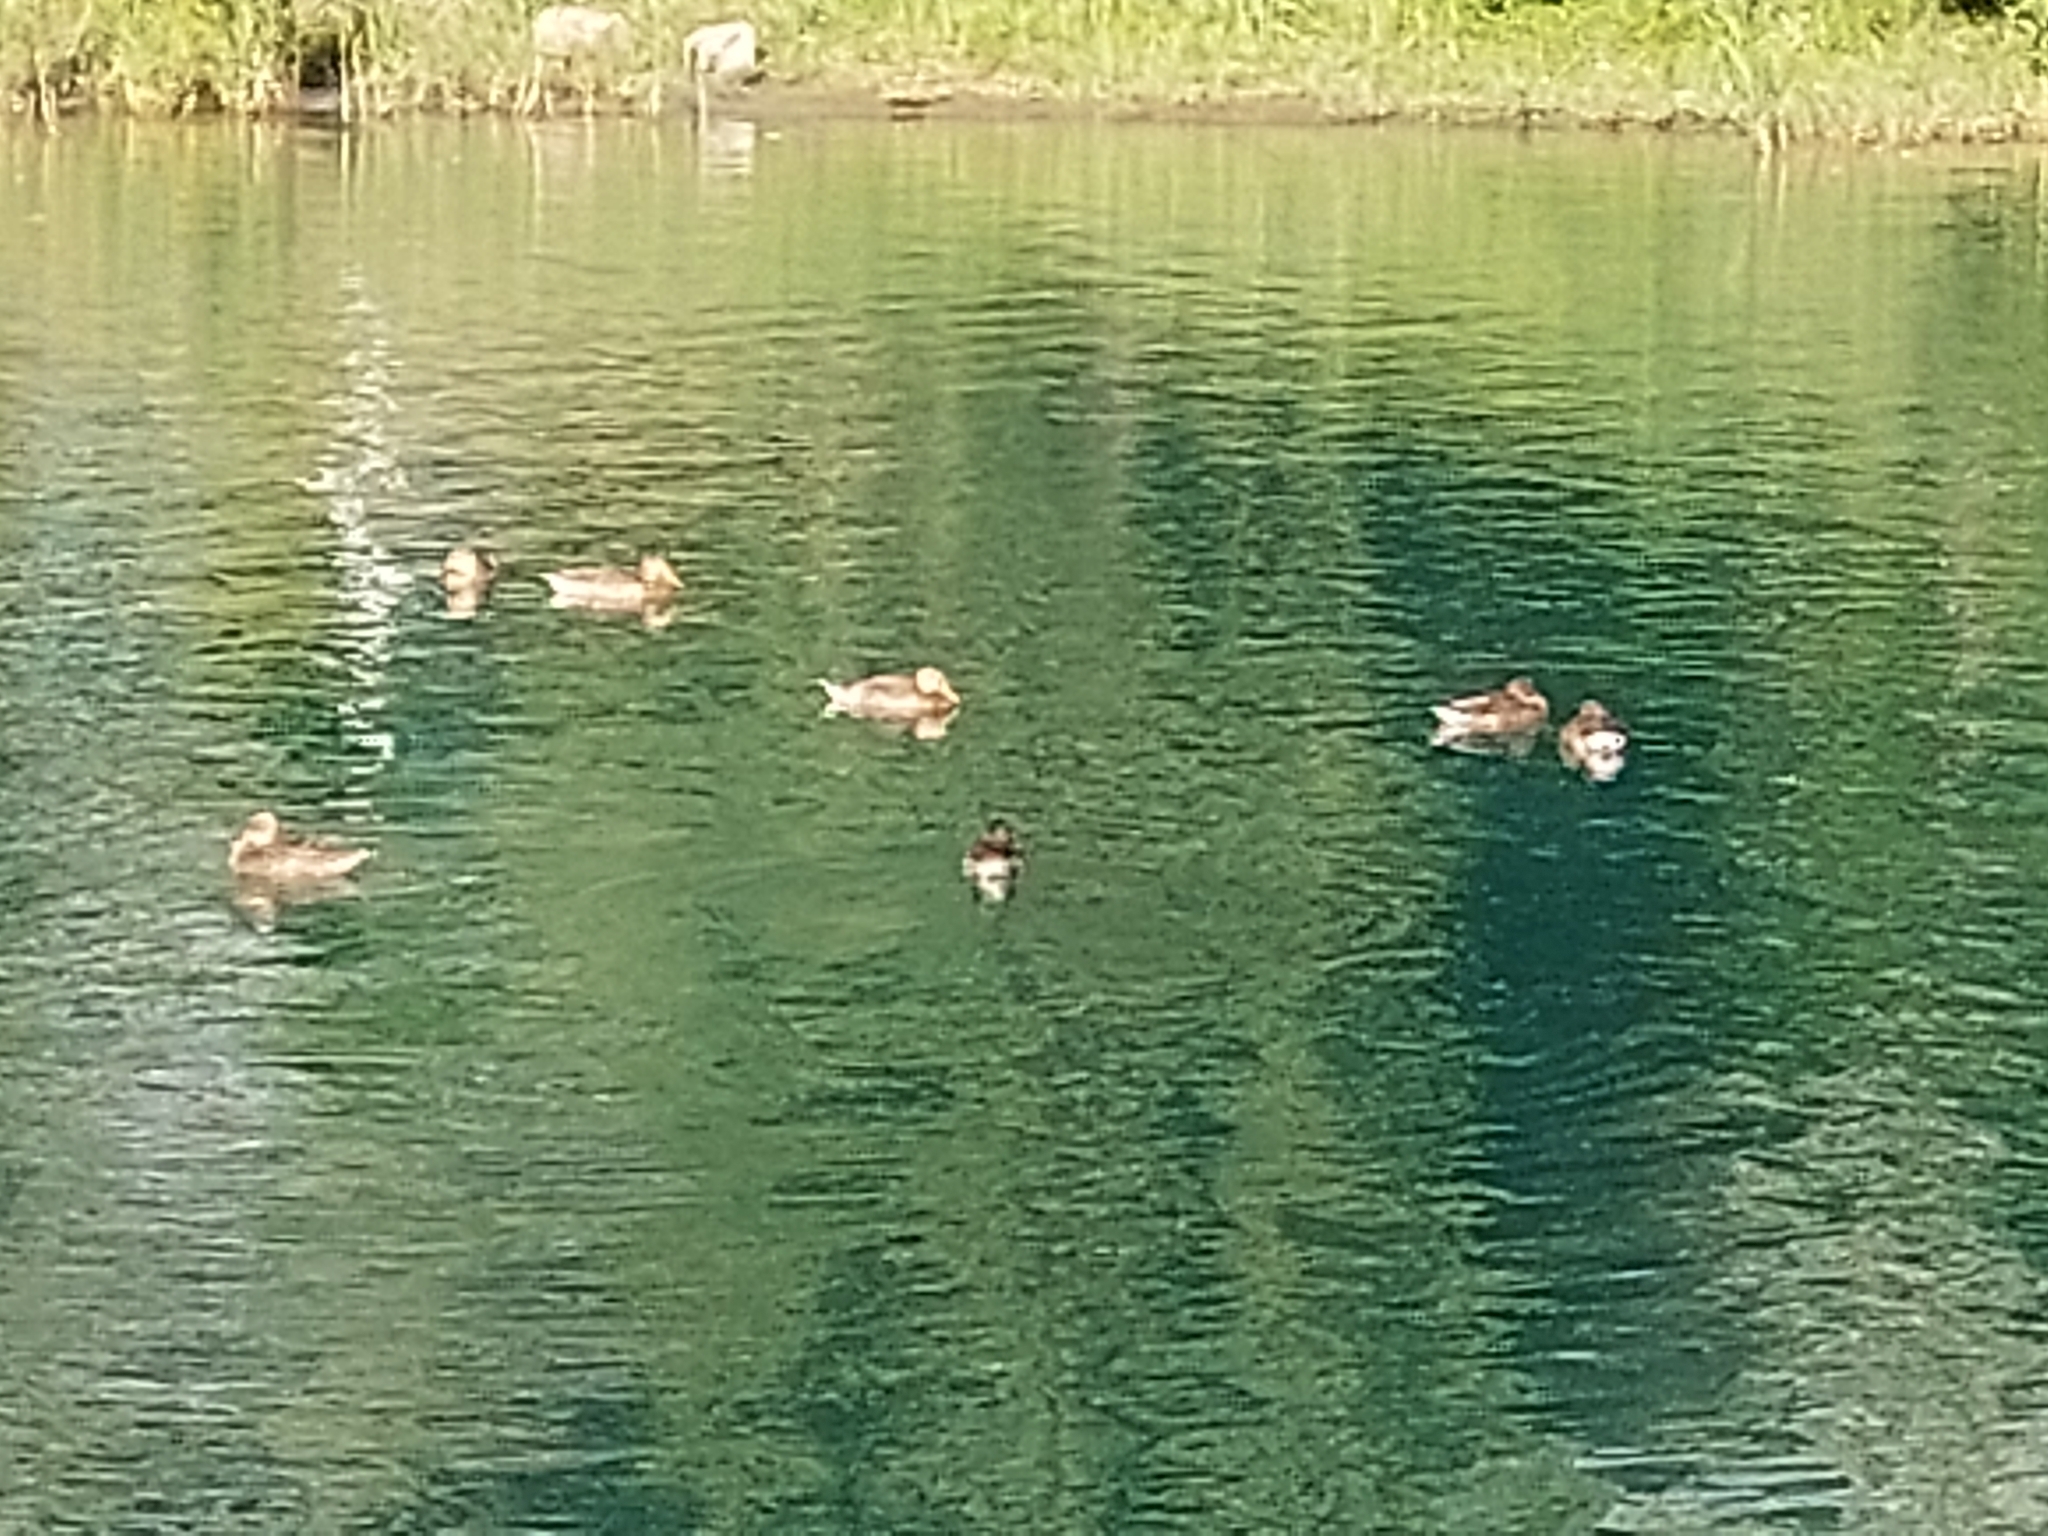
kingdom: Animalia
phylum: Chordata
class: Aves
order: Anseriformes
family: Anatidae
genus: Anas
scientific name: Anas platyrhynchos
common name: Mallard
